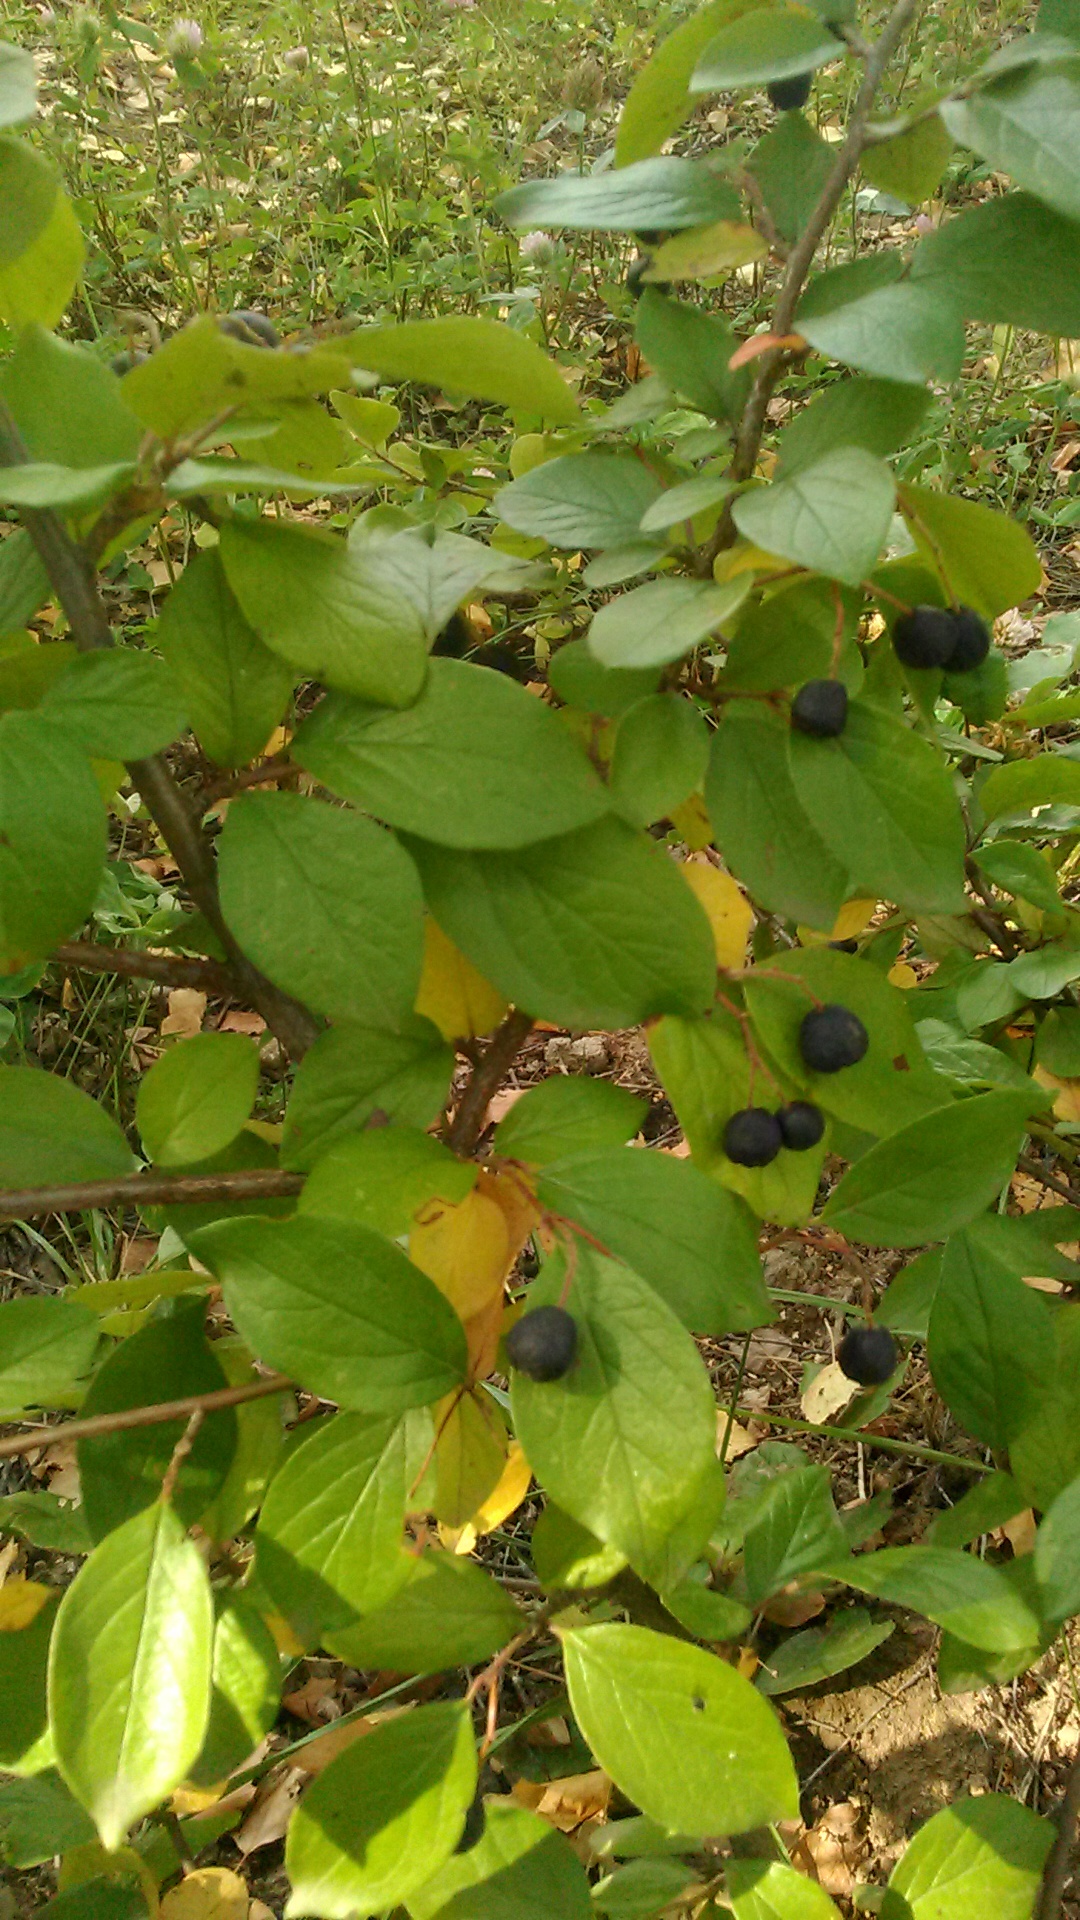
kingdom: Plantae
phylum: Tracheophyta
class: Magnoliopsida
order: Rosales
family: Rosaceae
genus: Cotoneaster
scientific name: Cotoneaster acutifolius
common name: Peking cotoneaster
